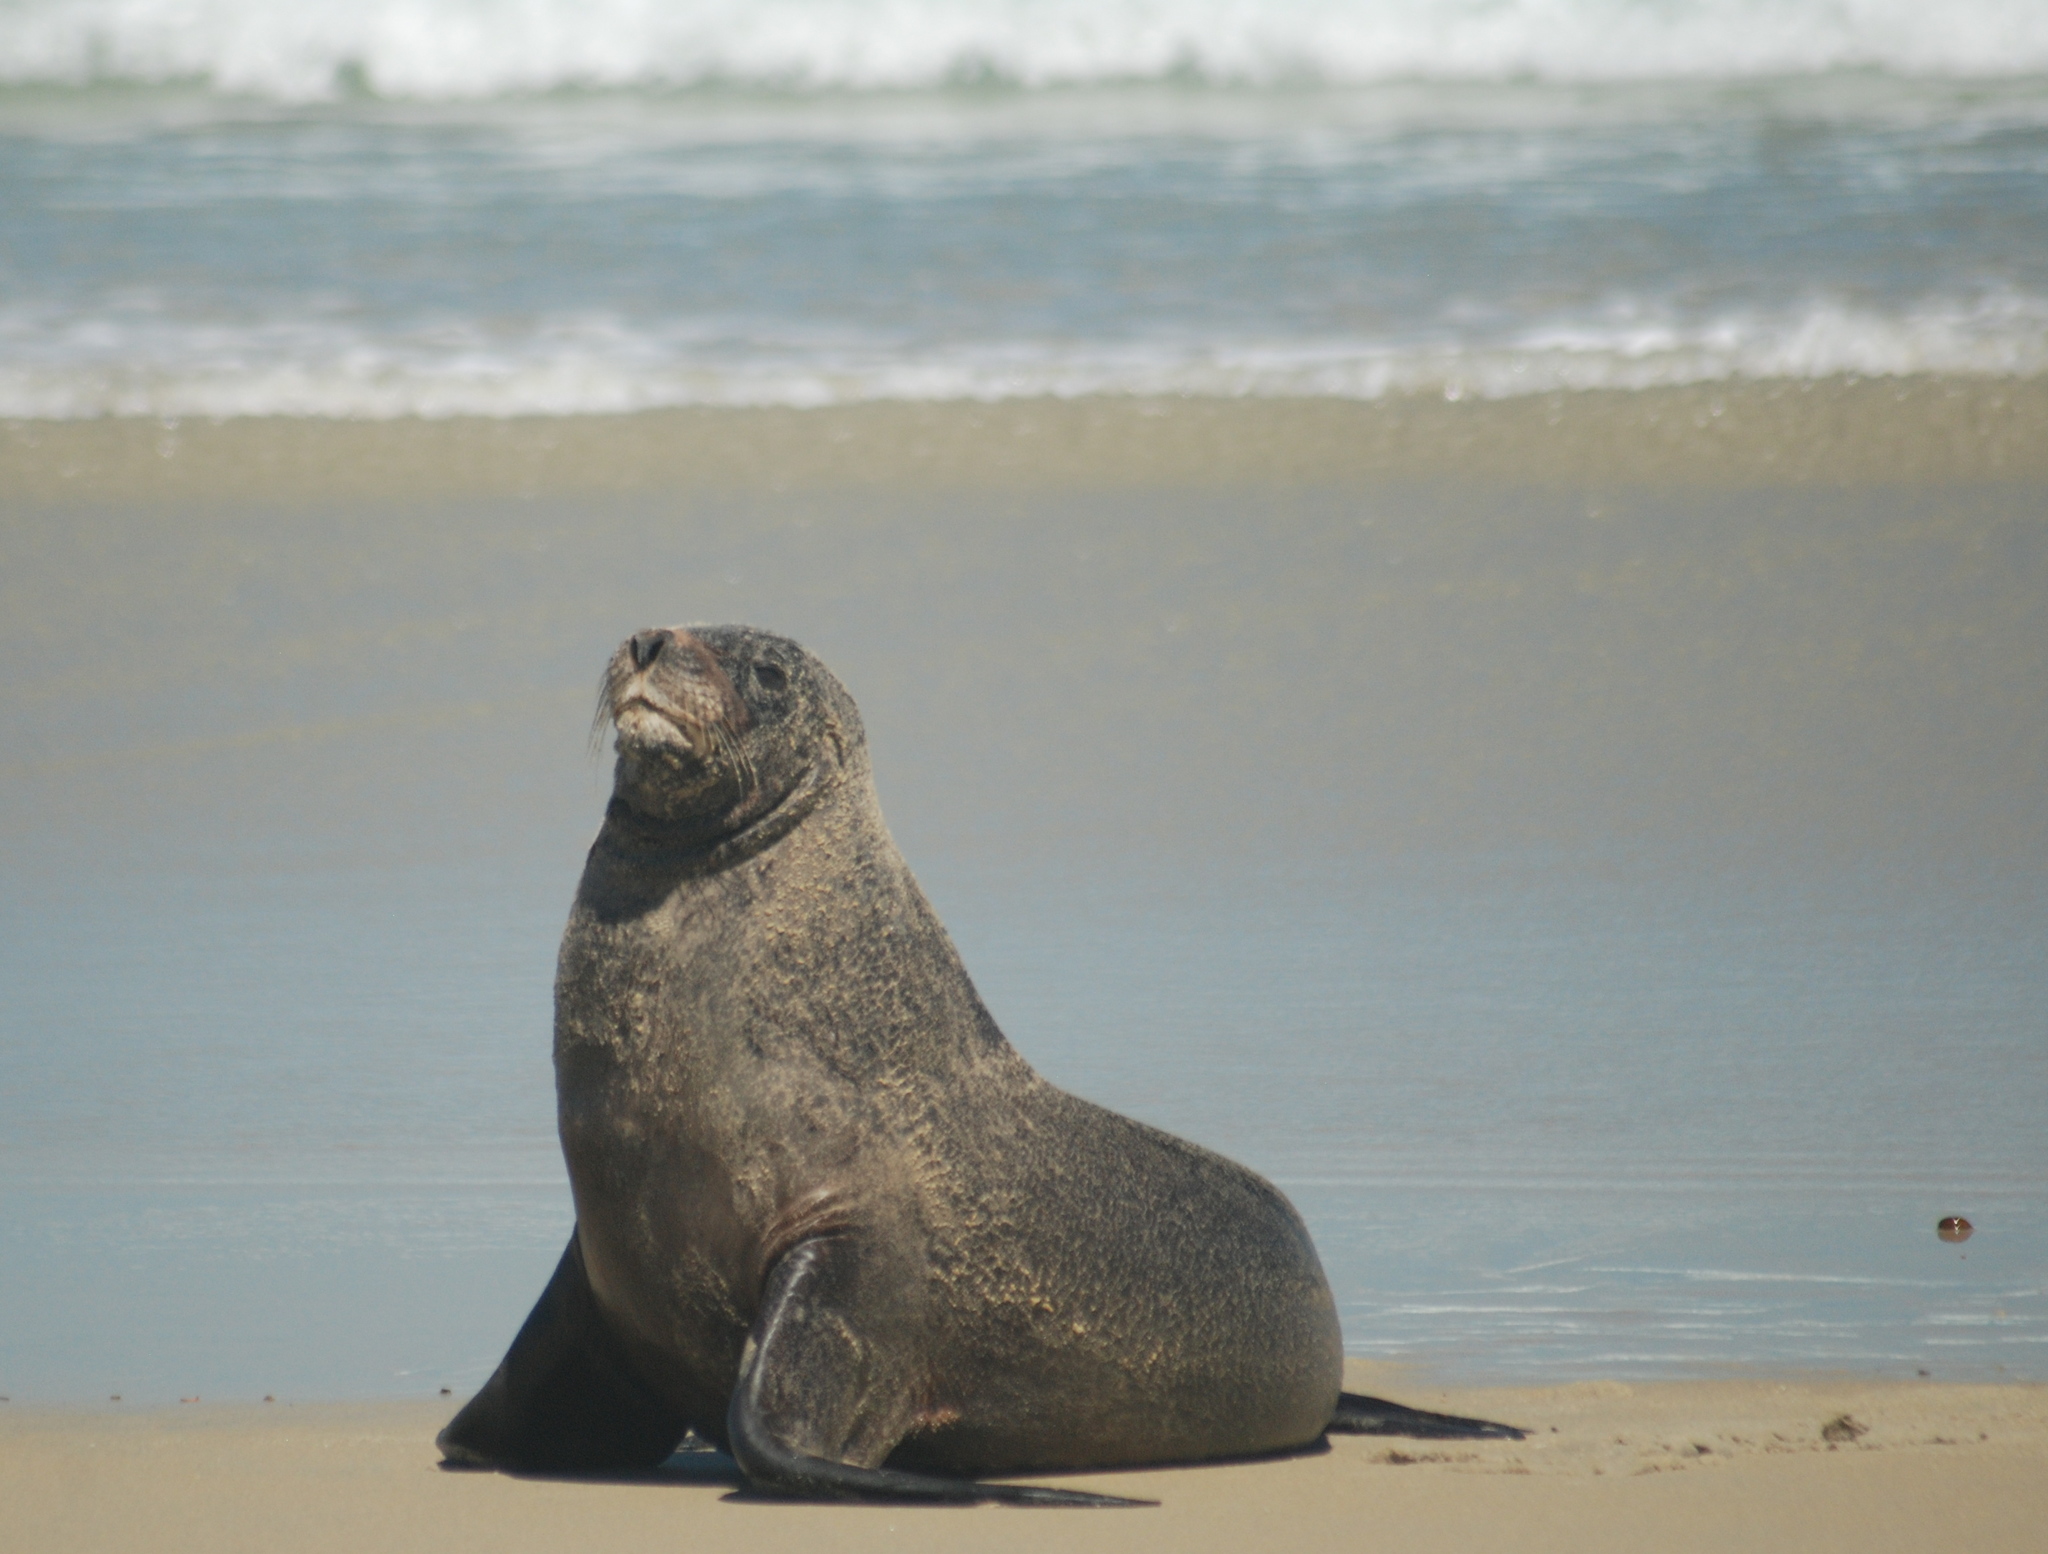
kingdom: Animalia
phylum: Chordata
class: Mammalia
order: Carnivora
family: Otariidae
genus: Phocarctos
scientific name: Phocarctos hookeri
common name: New zealand sea lion
